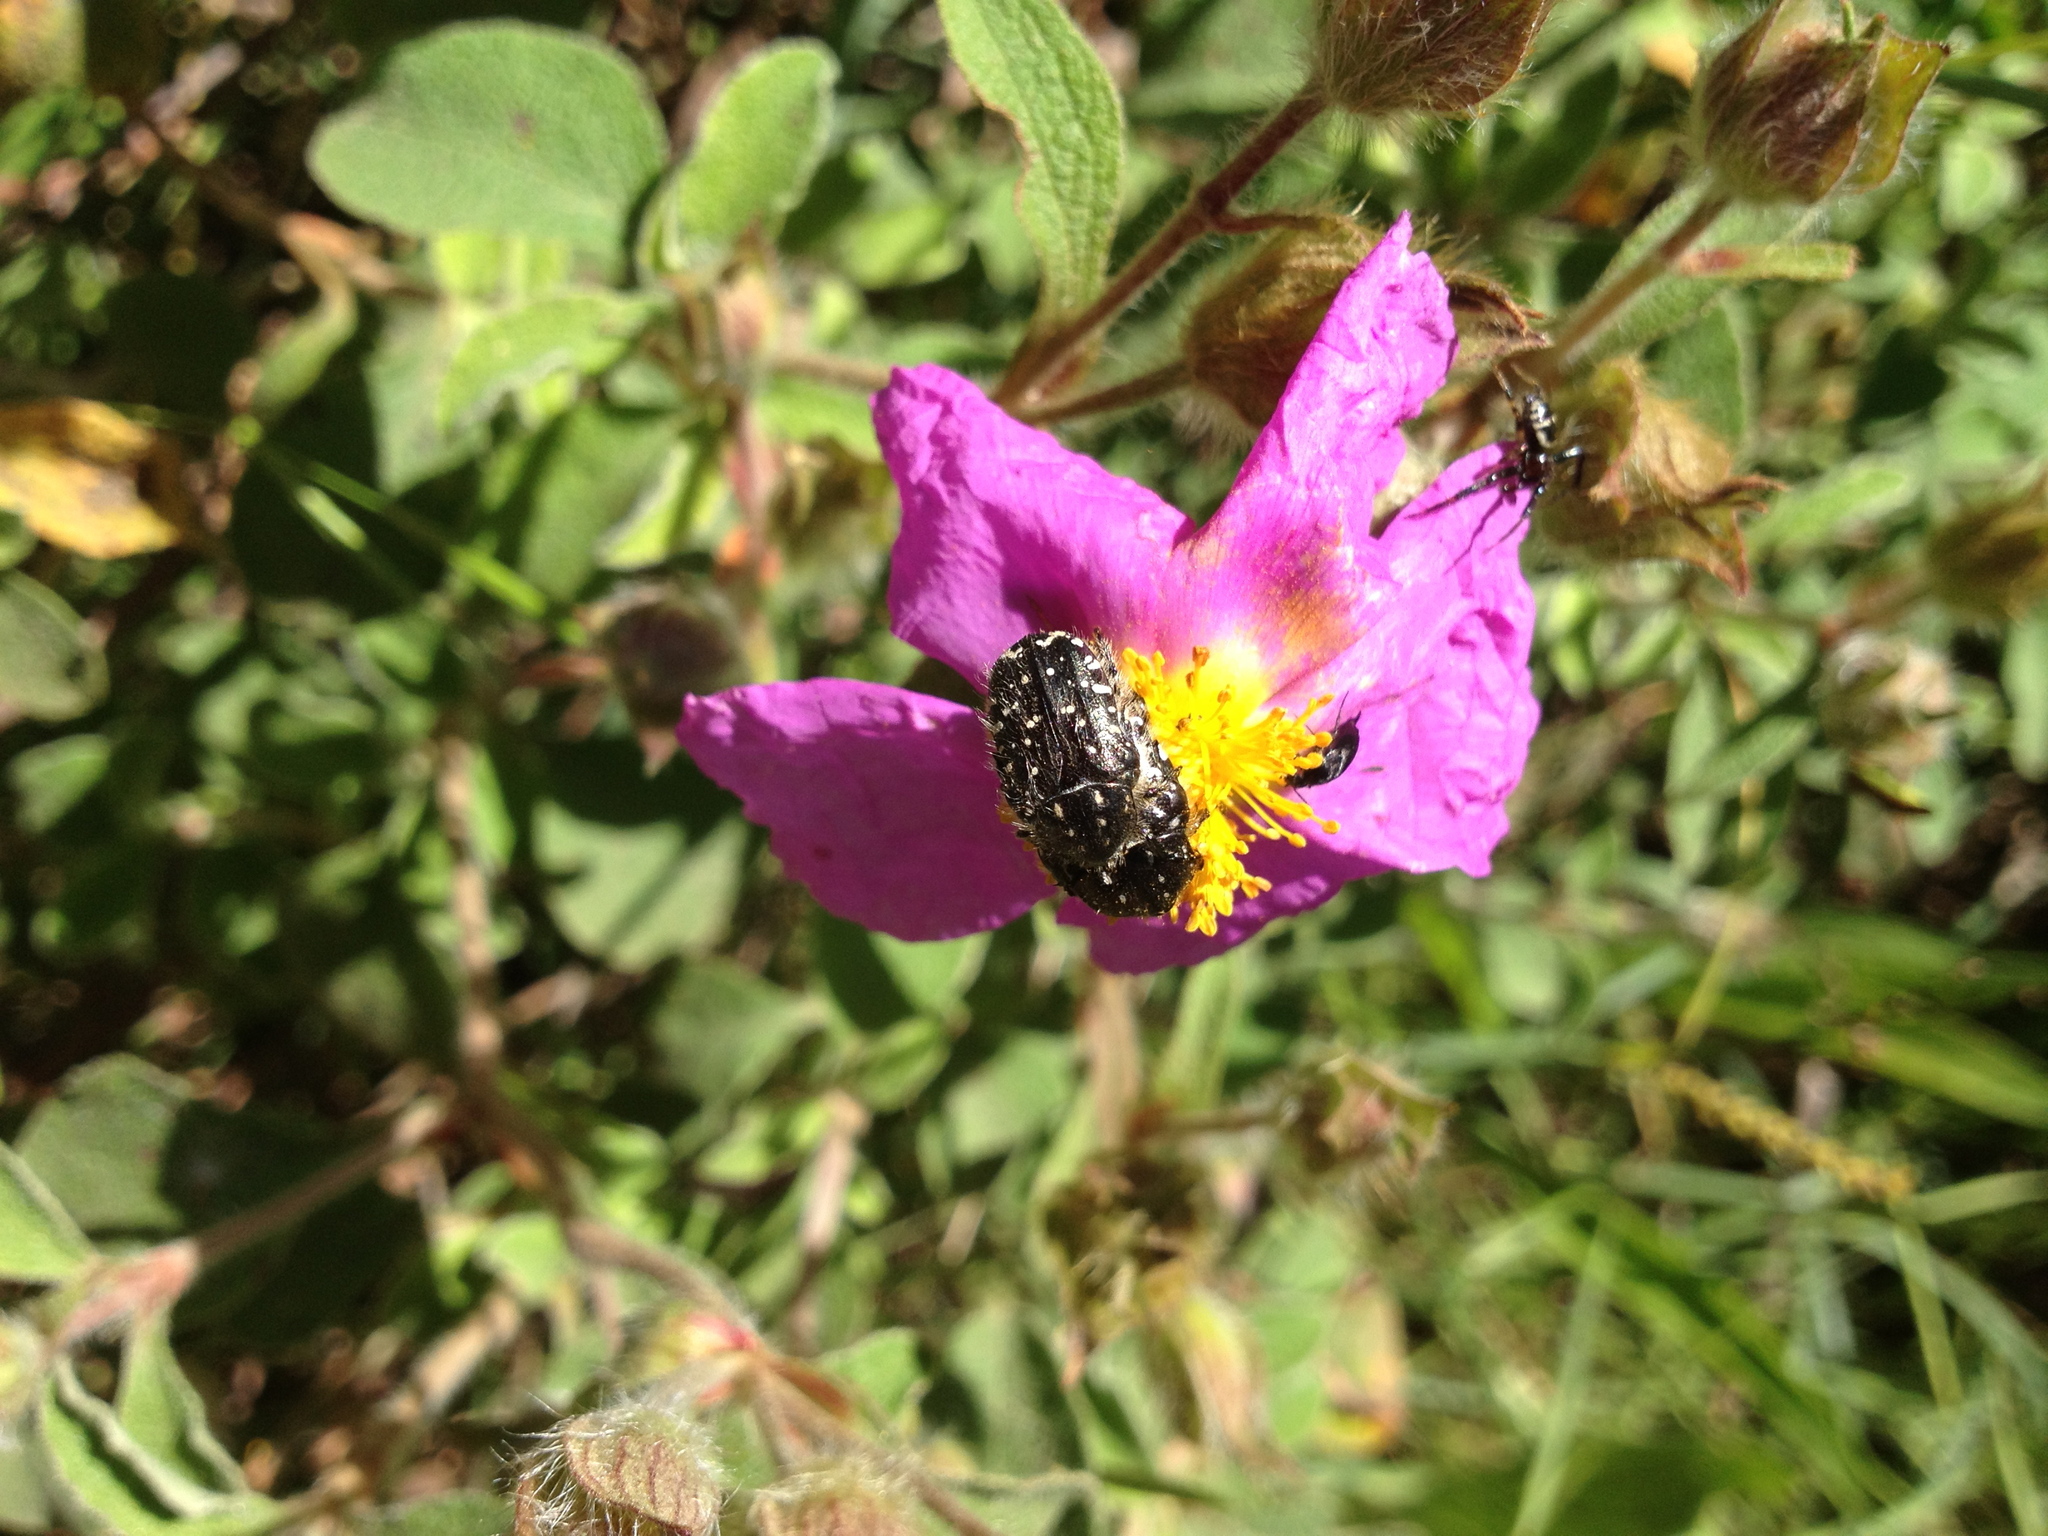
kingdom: Animalia
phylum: Arthropoda
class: Insecta
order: Coleoptera
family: Scarabaeidae
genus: Oxythyrea
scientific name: Oxythyrea funesta
